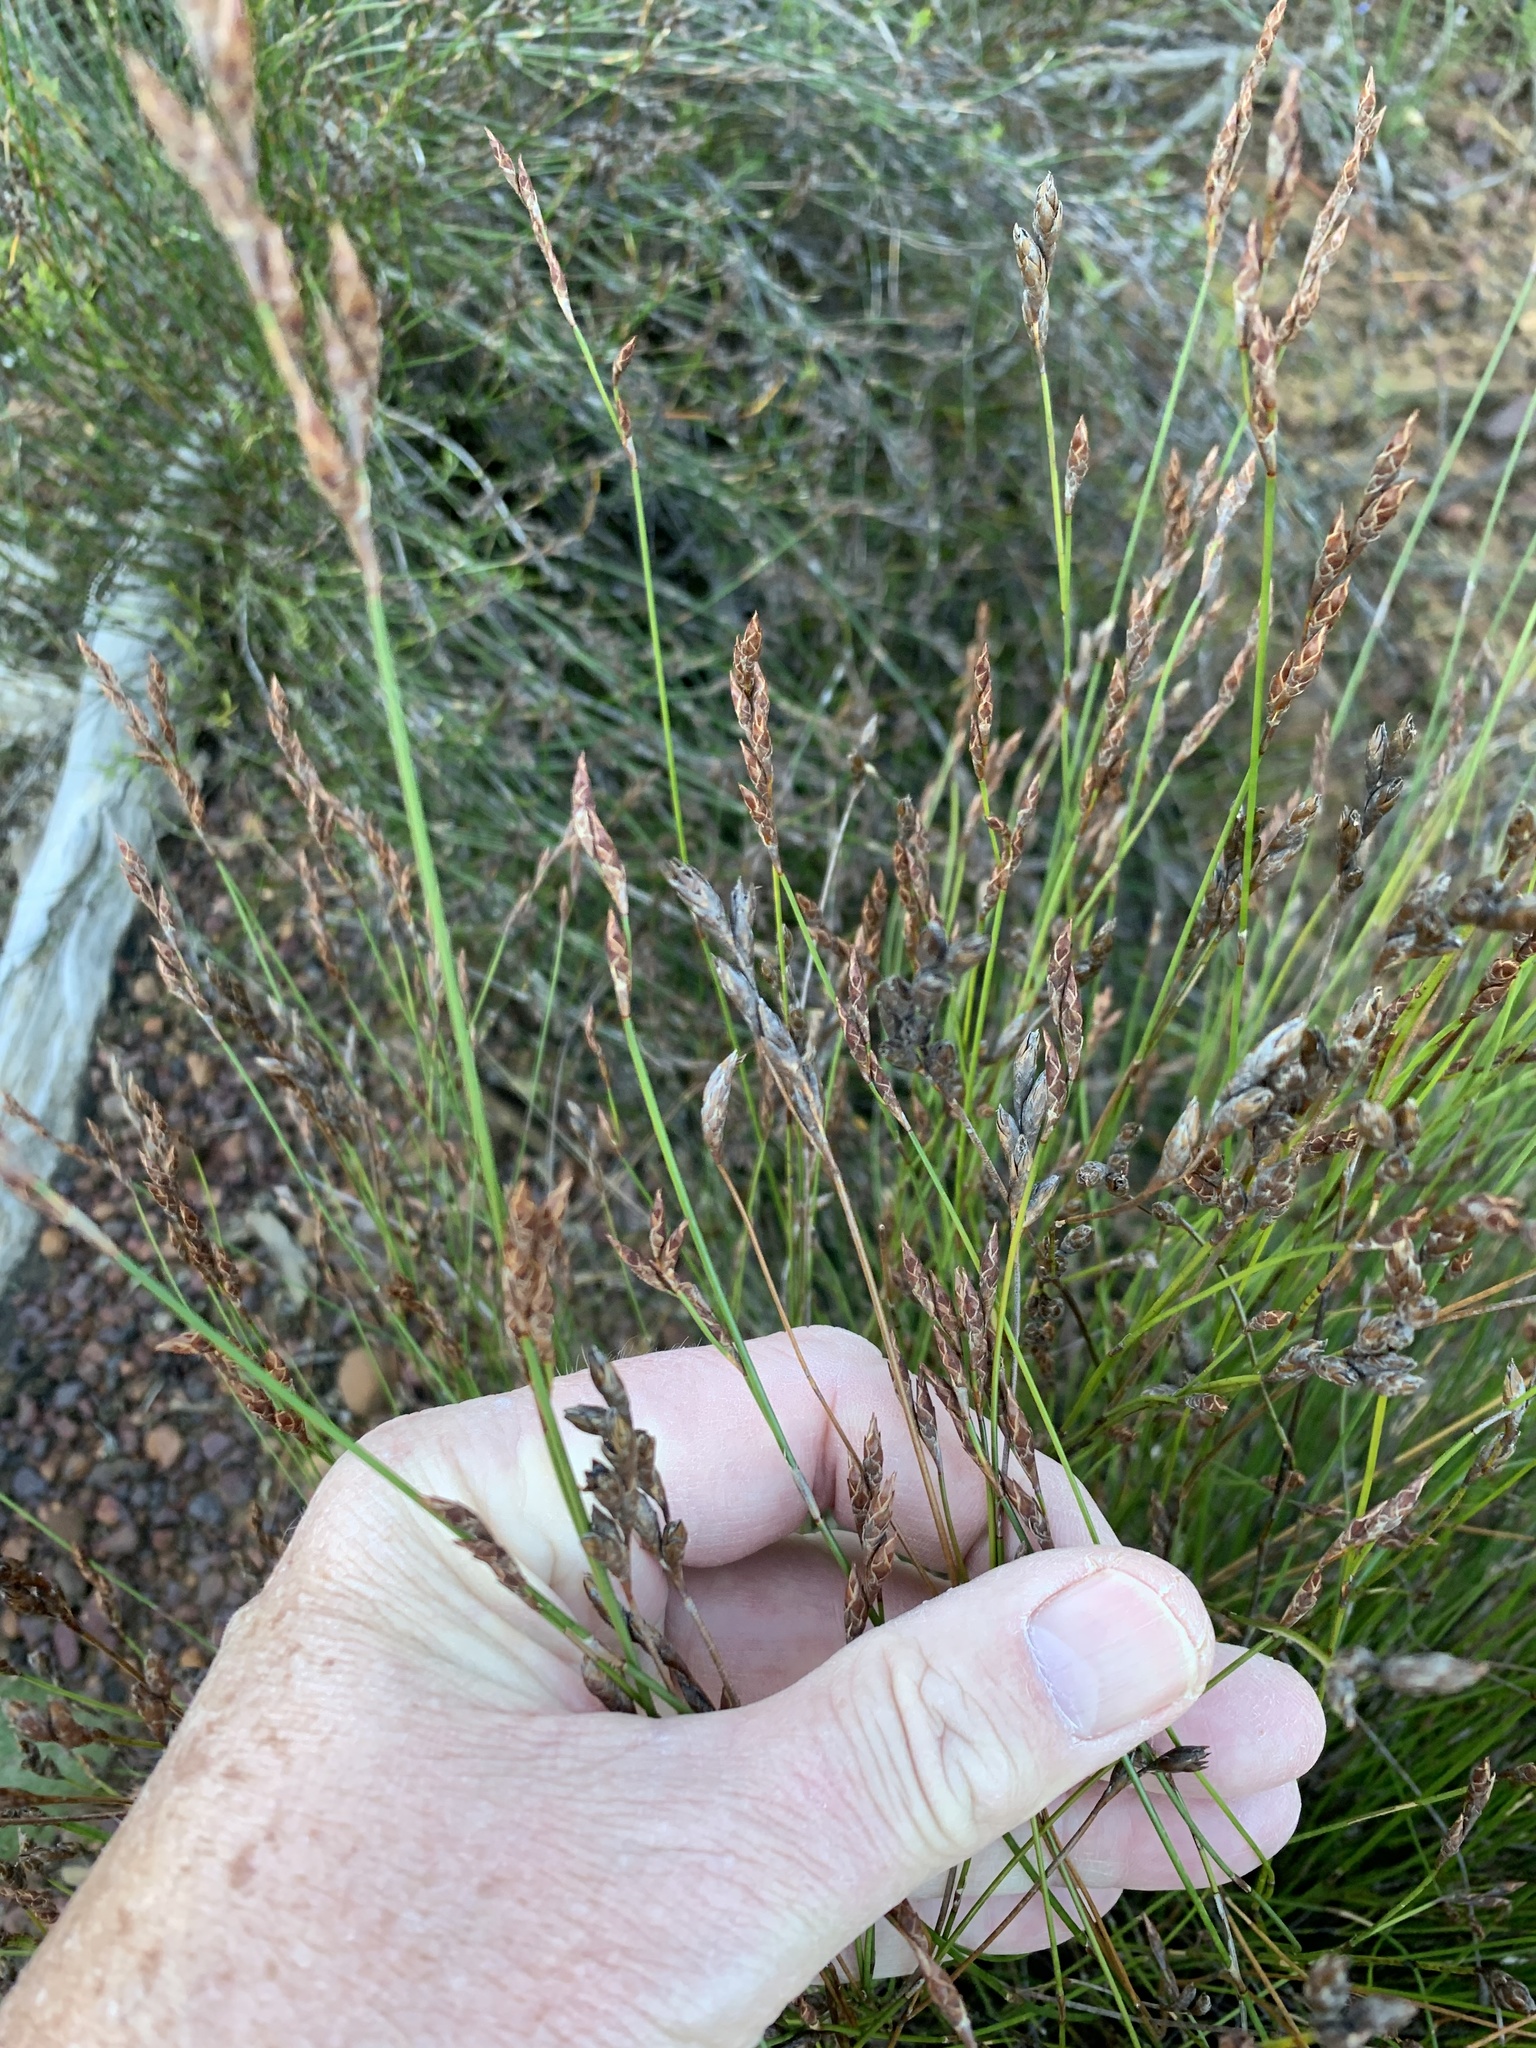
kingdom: Plantae
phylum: Tracheophyta
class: Liliopsida
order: Poales
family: Restionaceae
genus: Restio
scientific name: Restio filiformis
